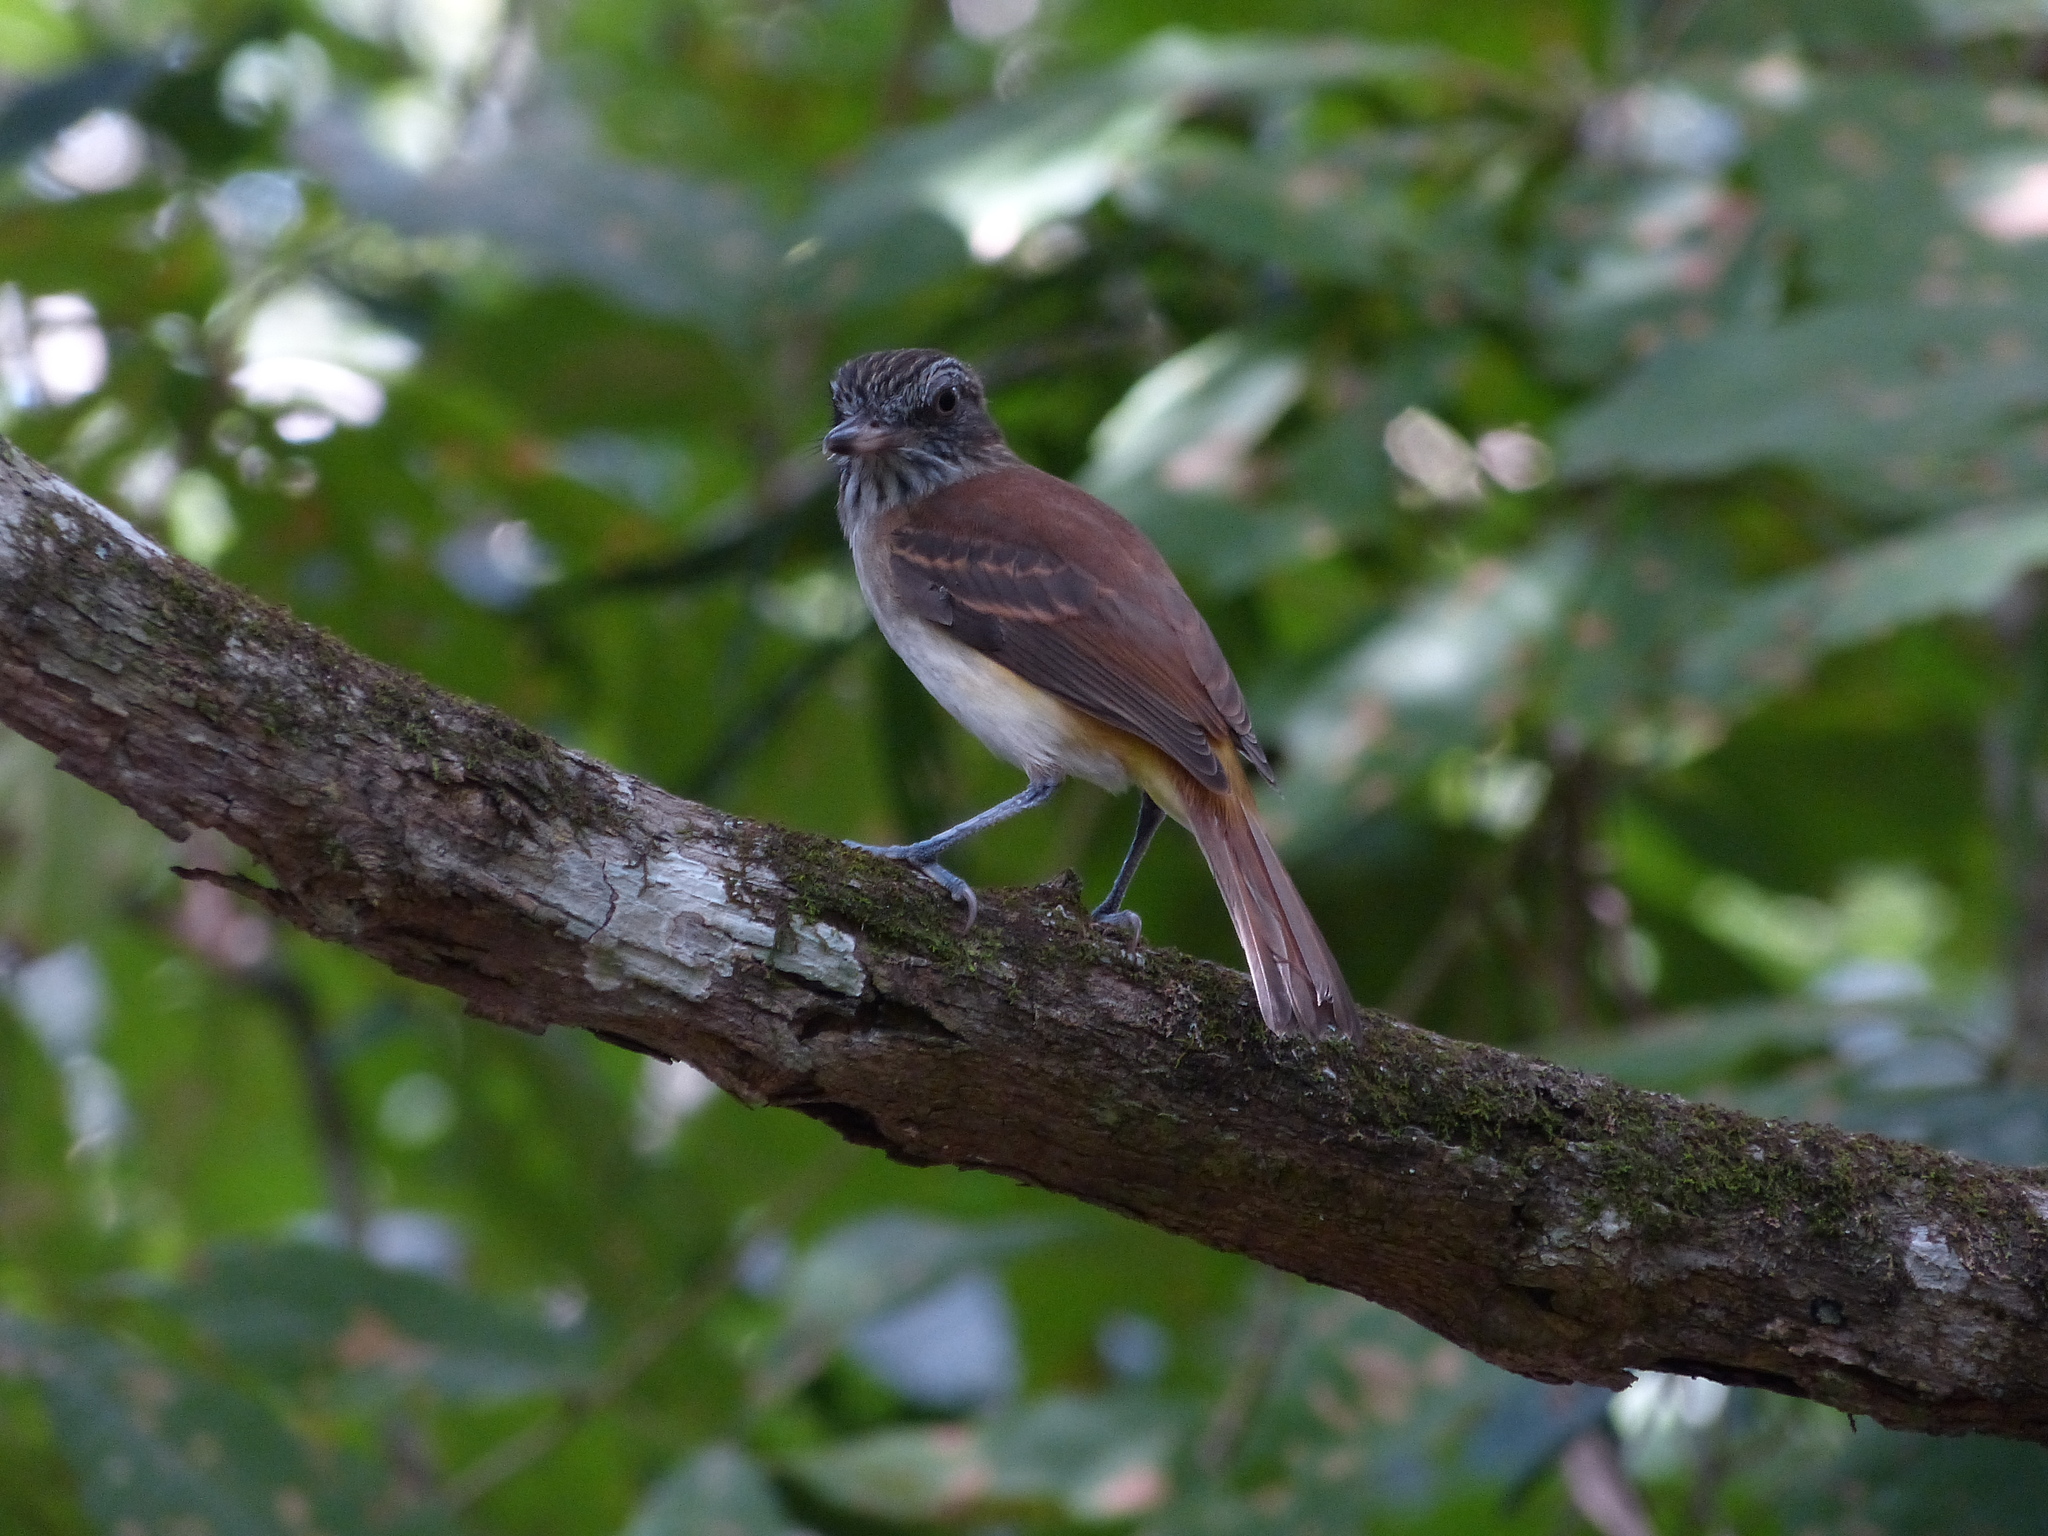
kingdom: Animalia
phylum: Chordata
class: Aves
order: Passeriformes
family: Tyrannidae
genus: Attila
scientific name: Attila spadiceus
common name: Bright-rumped attila
